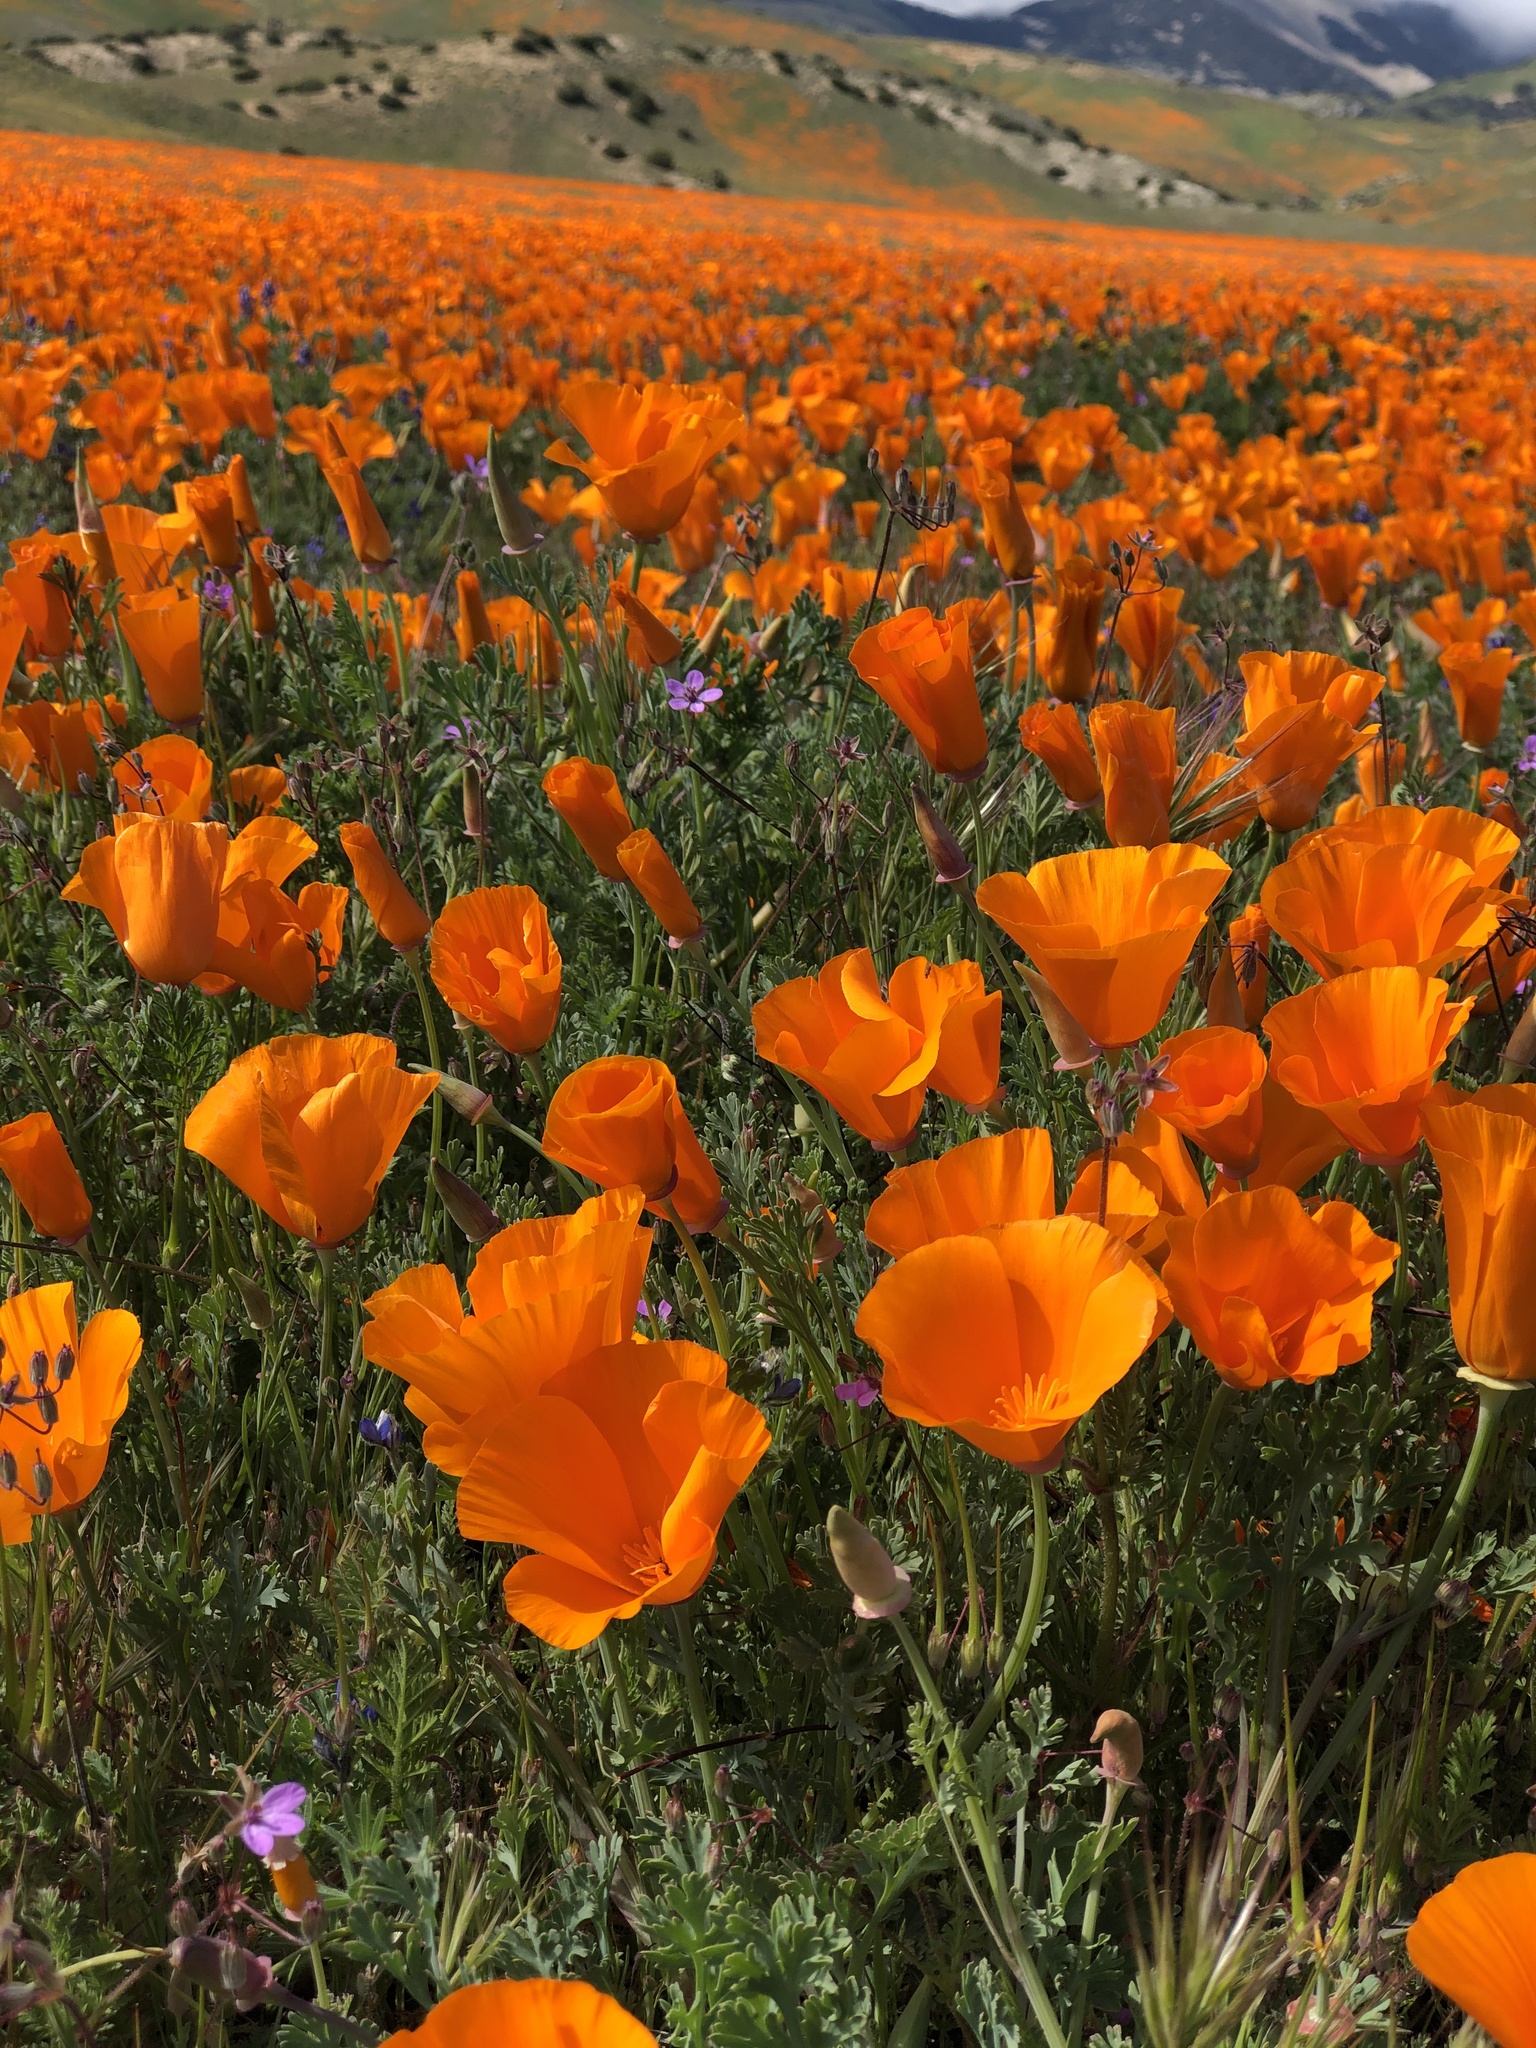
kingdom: Plantae
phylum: Tracheophyta
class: Magnoliopsida
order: Ranunculales
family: Papaveraceae
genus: Eschscholzia
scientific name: Eschscholzia californica
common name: California poppy
